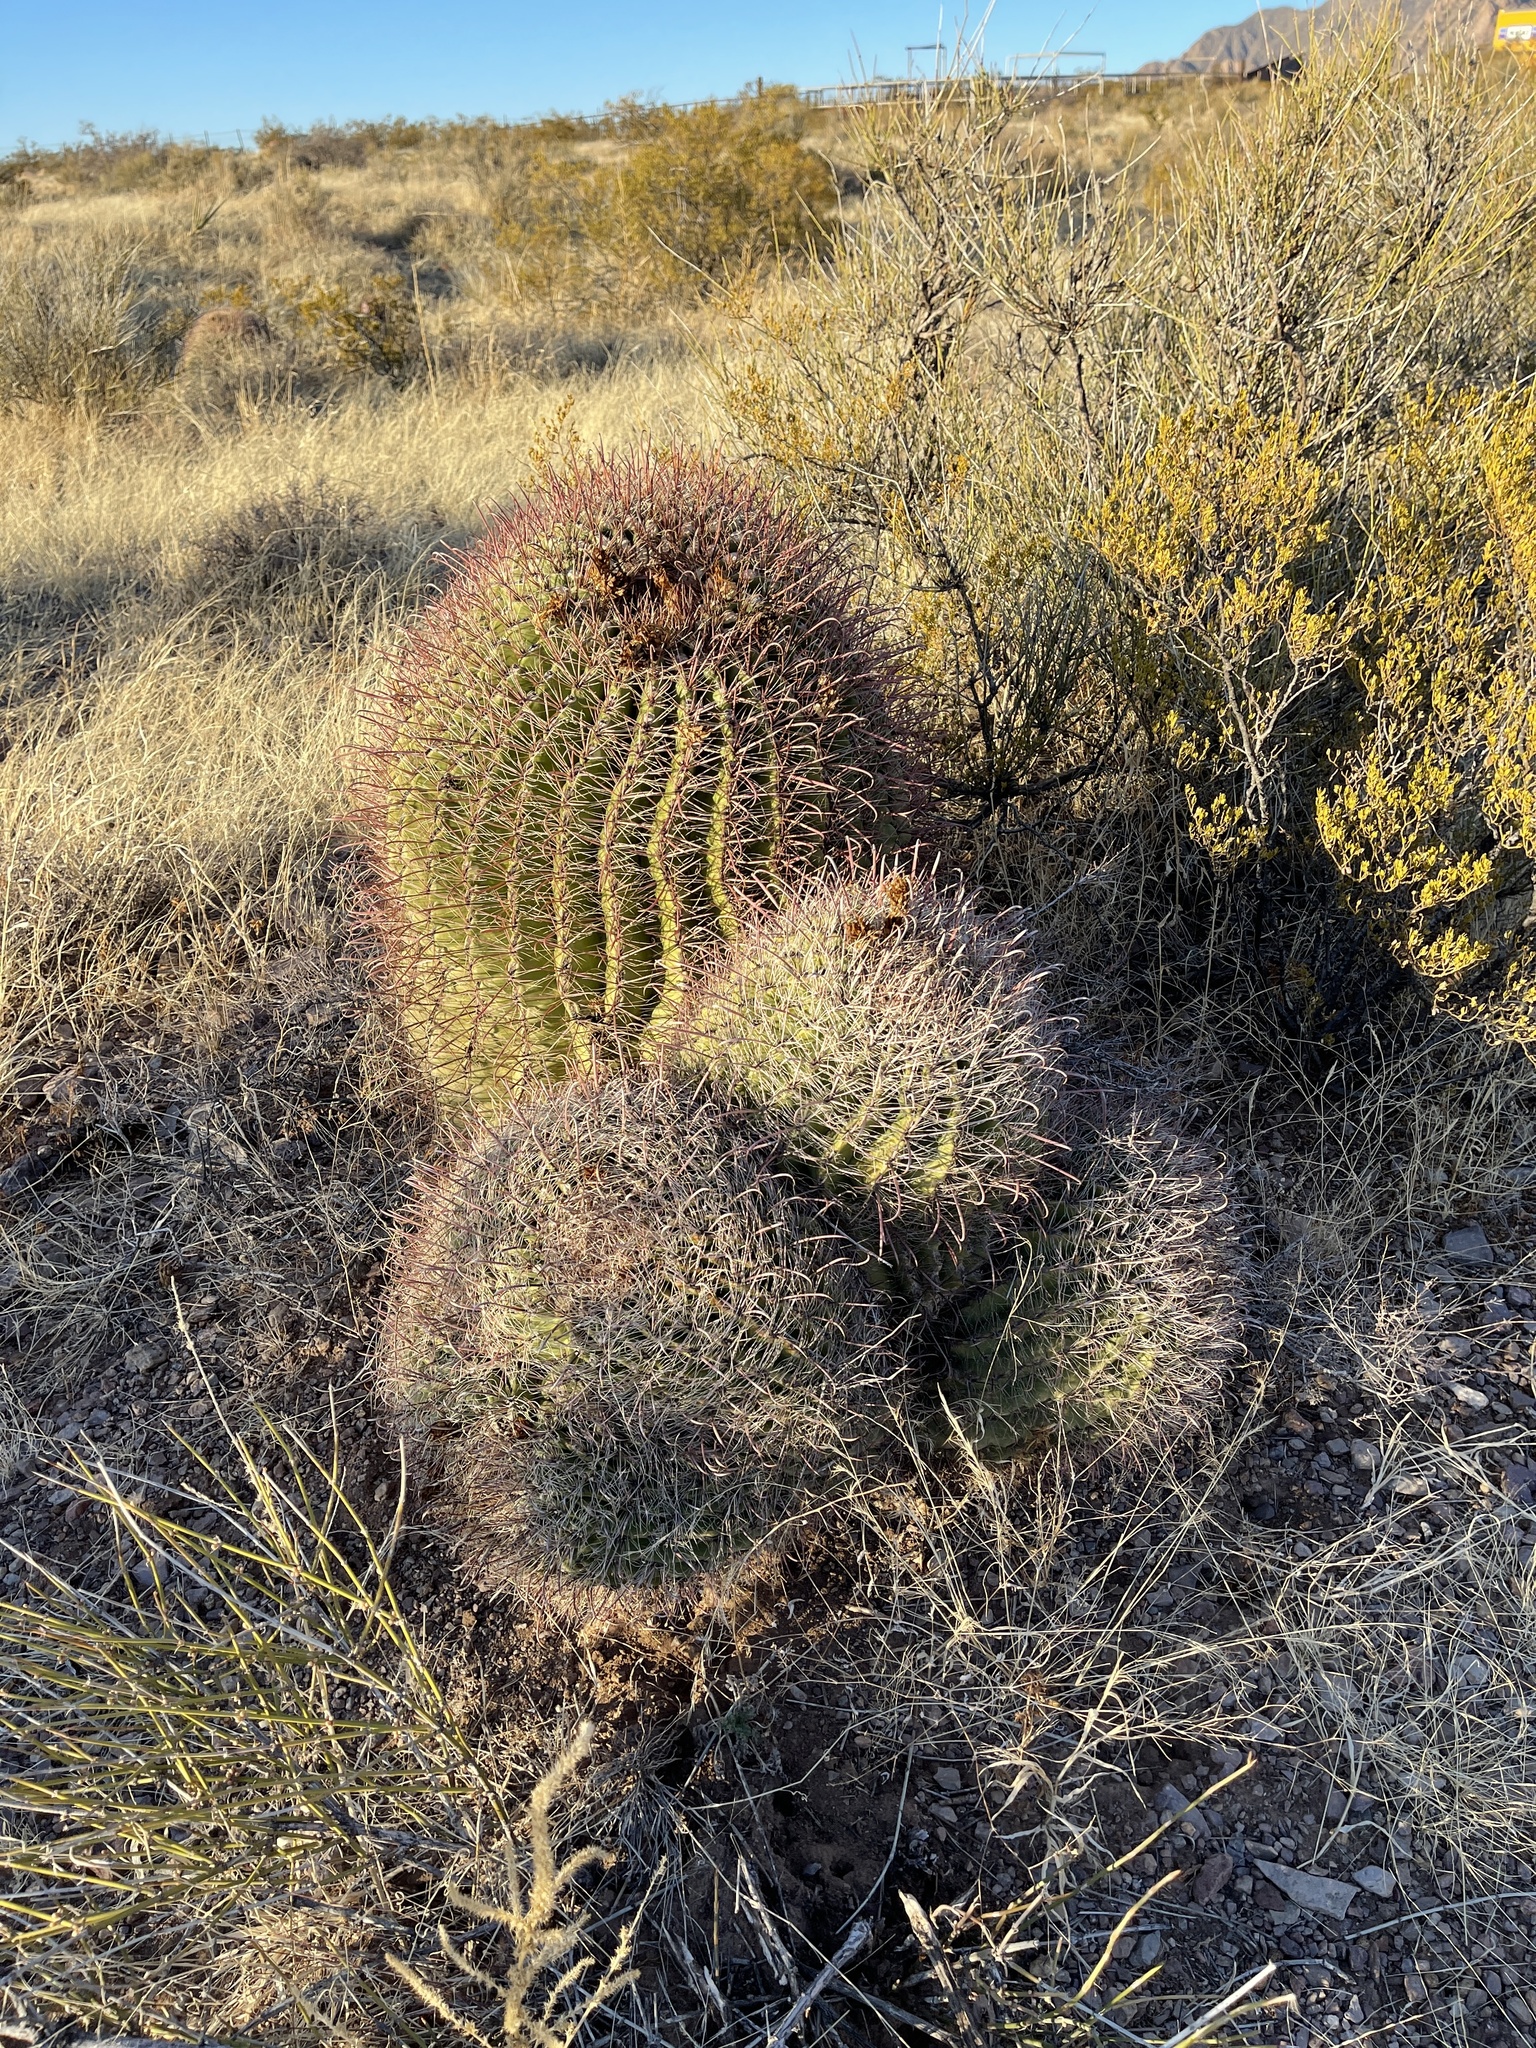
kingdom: Plantae
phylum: Tracheophyta
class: Magnoliopsida
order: Caryophyllales
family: Cactaceae
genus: Ferocactus
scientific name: Ferocactus wislizeni
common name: Candy barrel cactus
